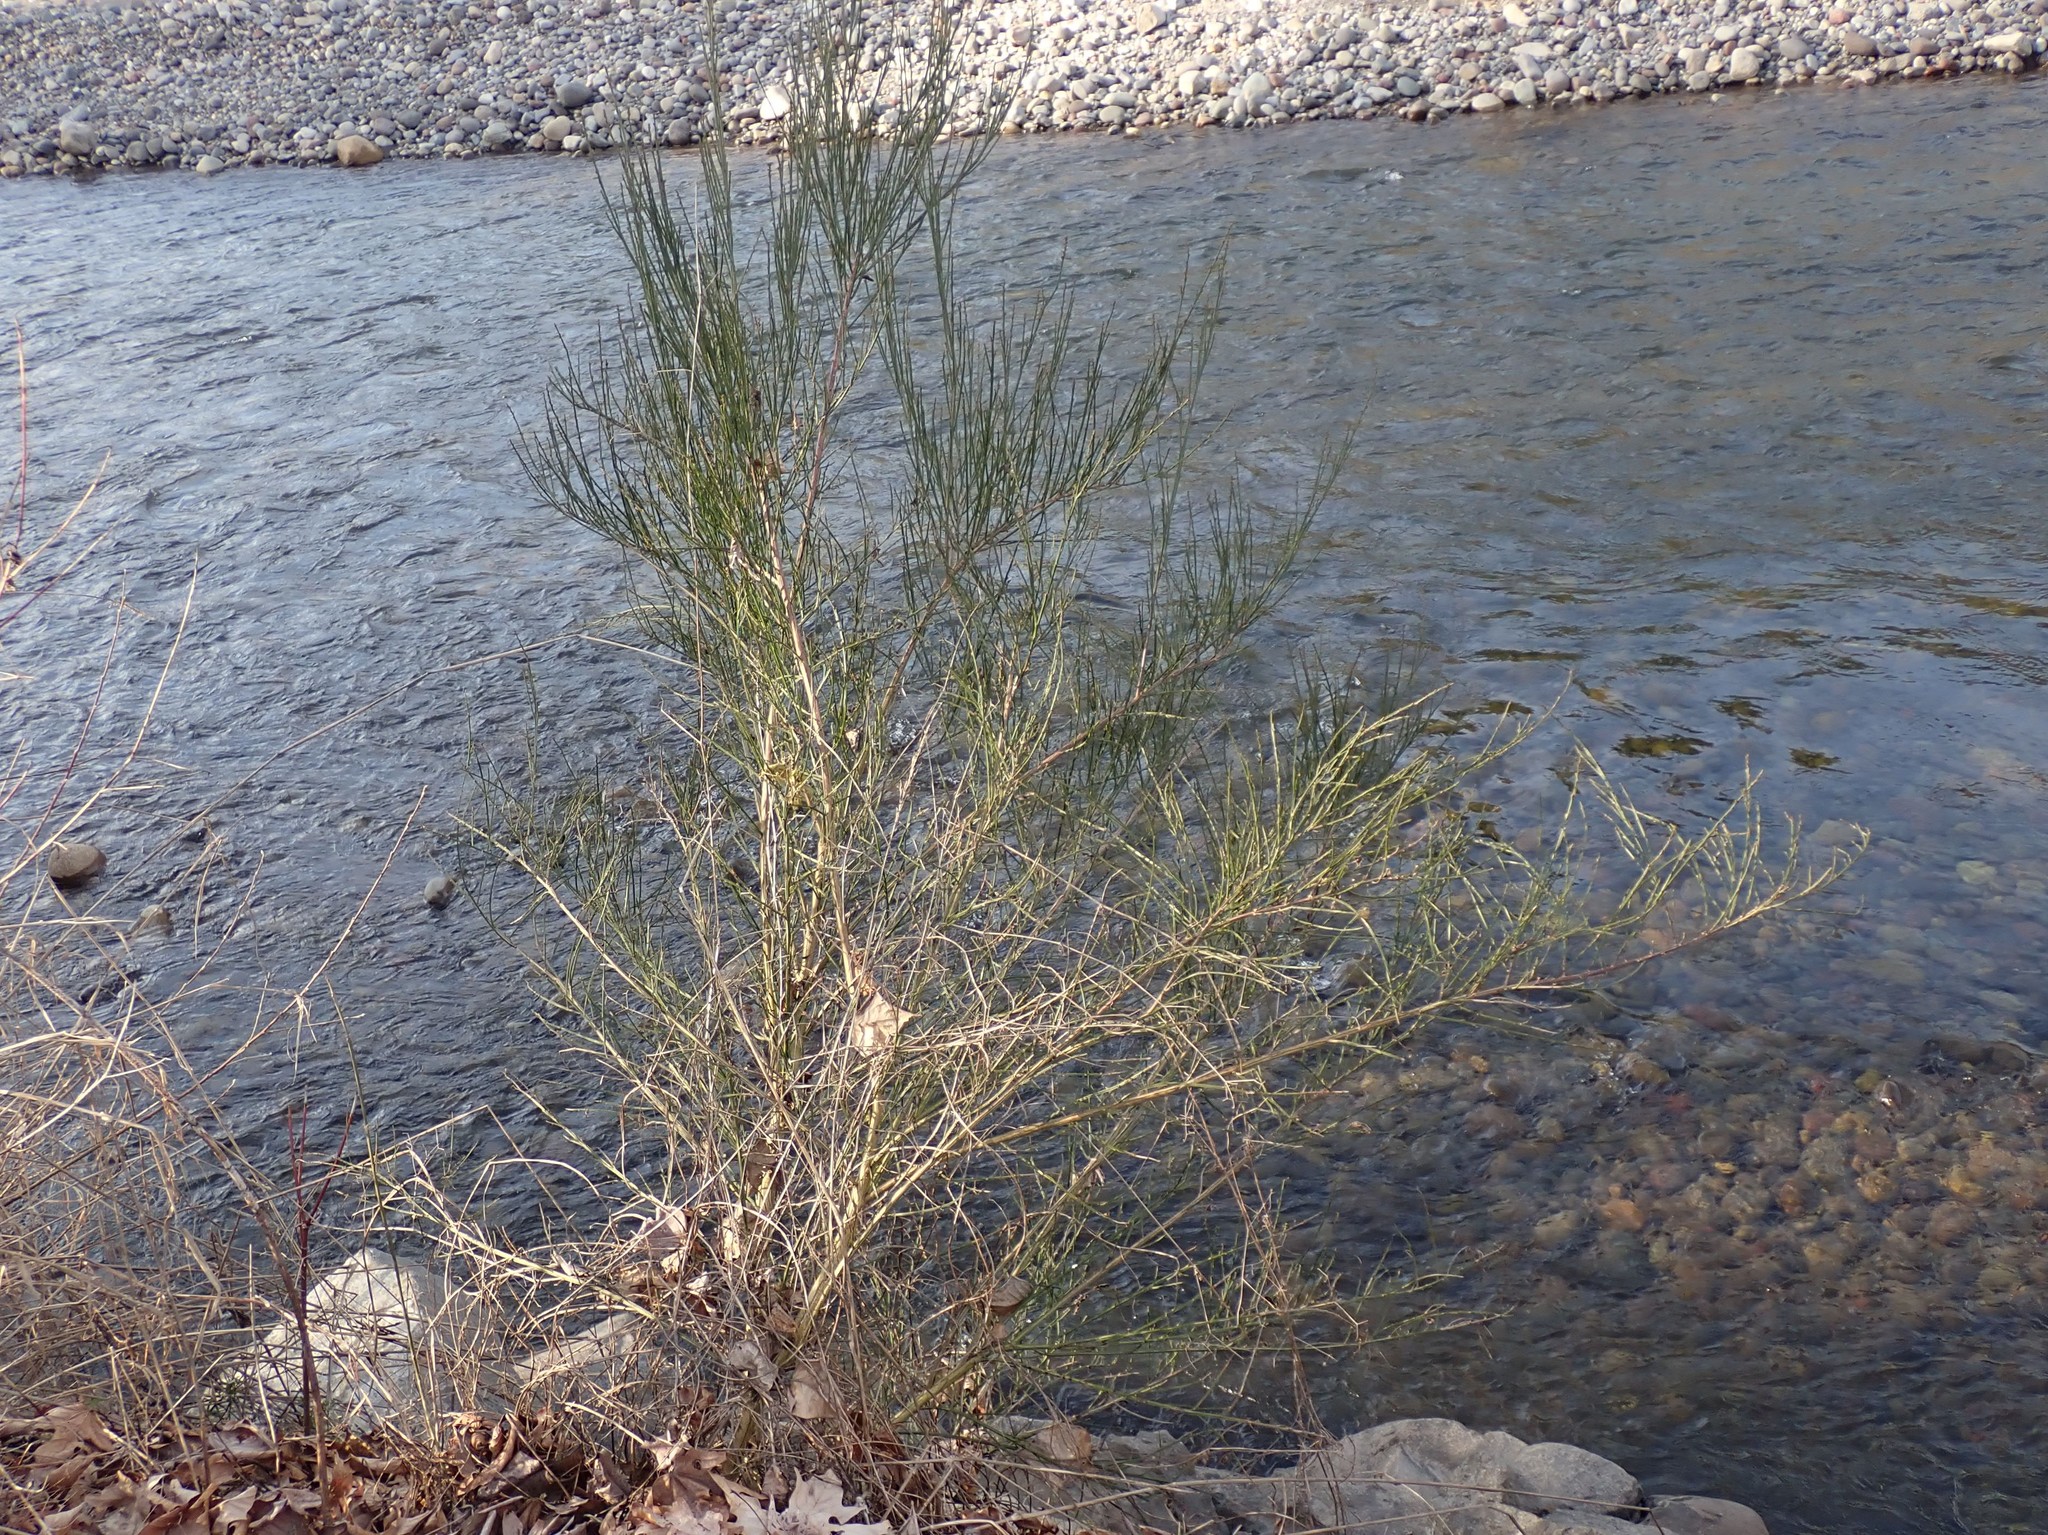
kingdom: Plantae
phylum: Tracheophyta
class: Magnoliopsida
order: Fabales
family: Fabaceae
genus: Cytisus
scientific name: Cytisus scoparius
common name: Scotch broom
